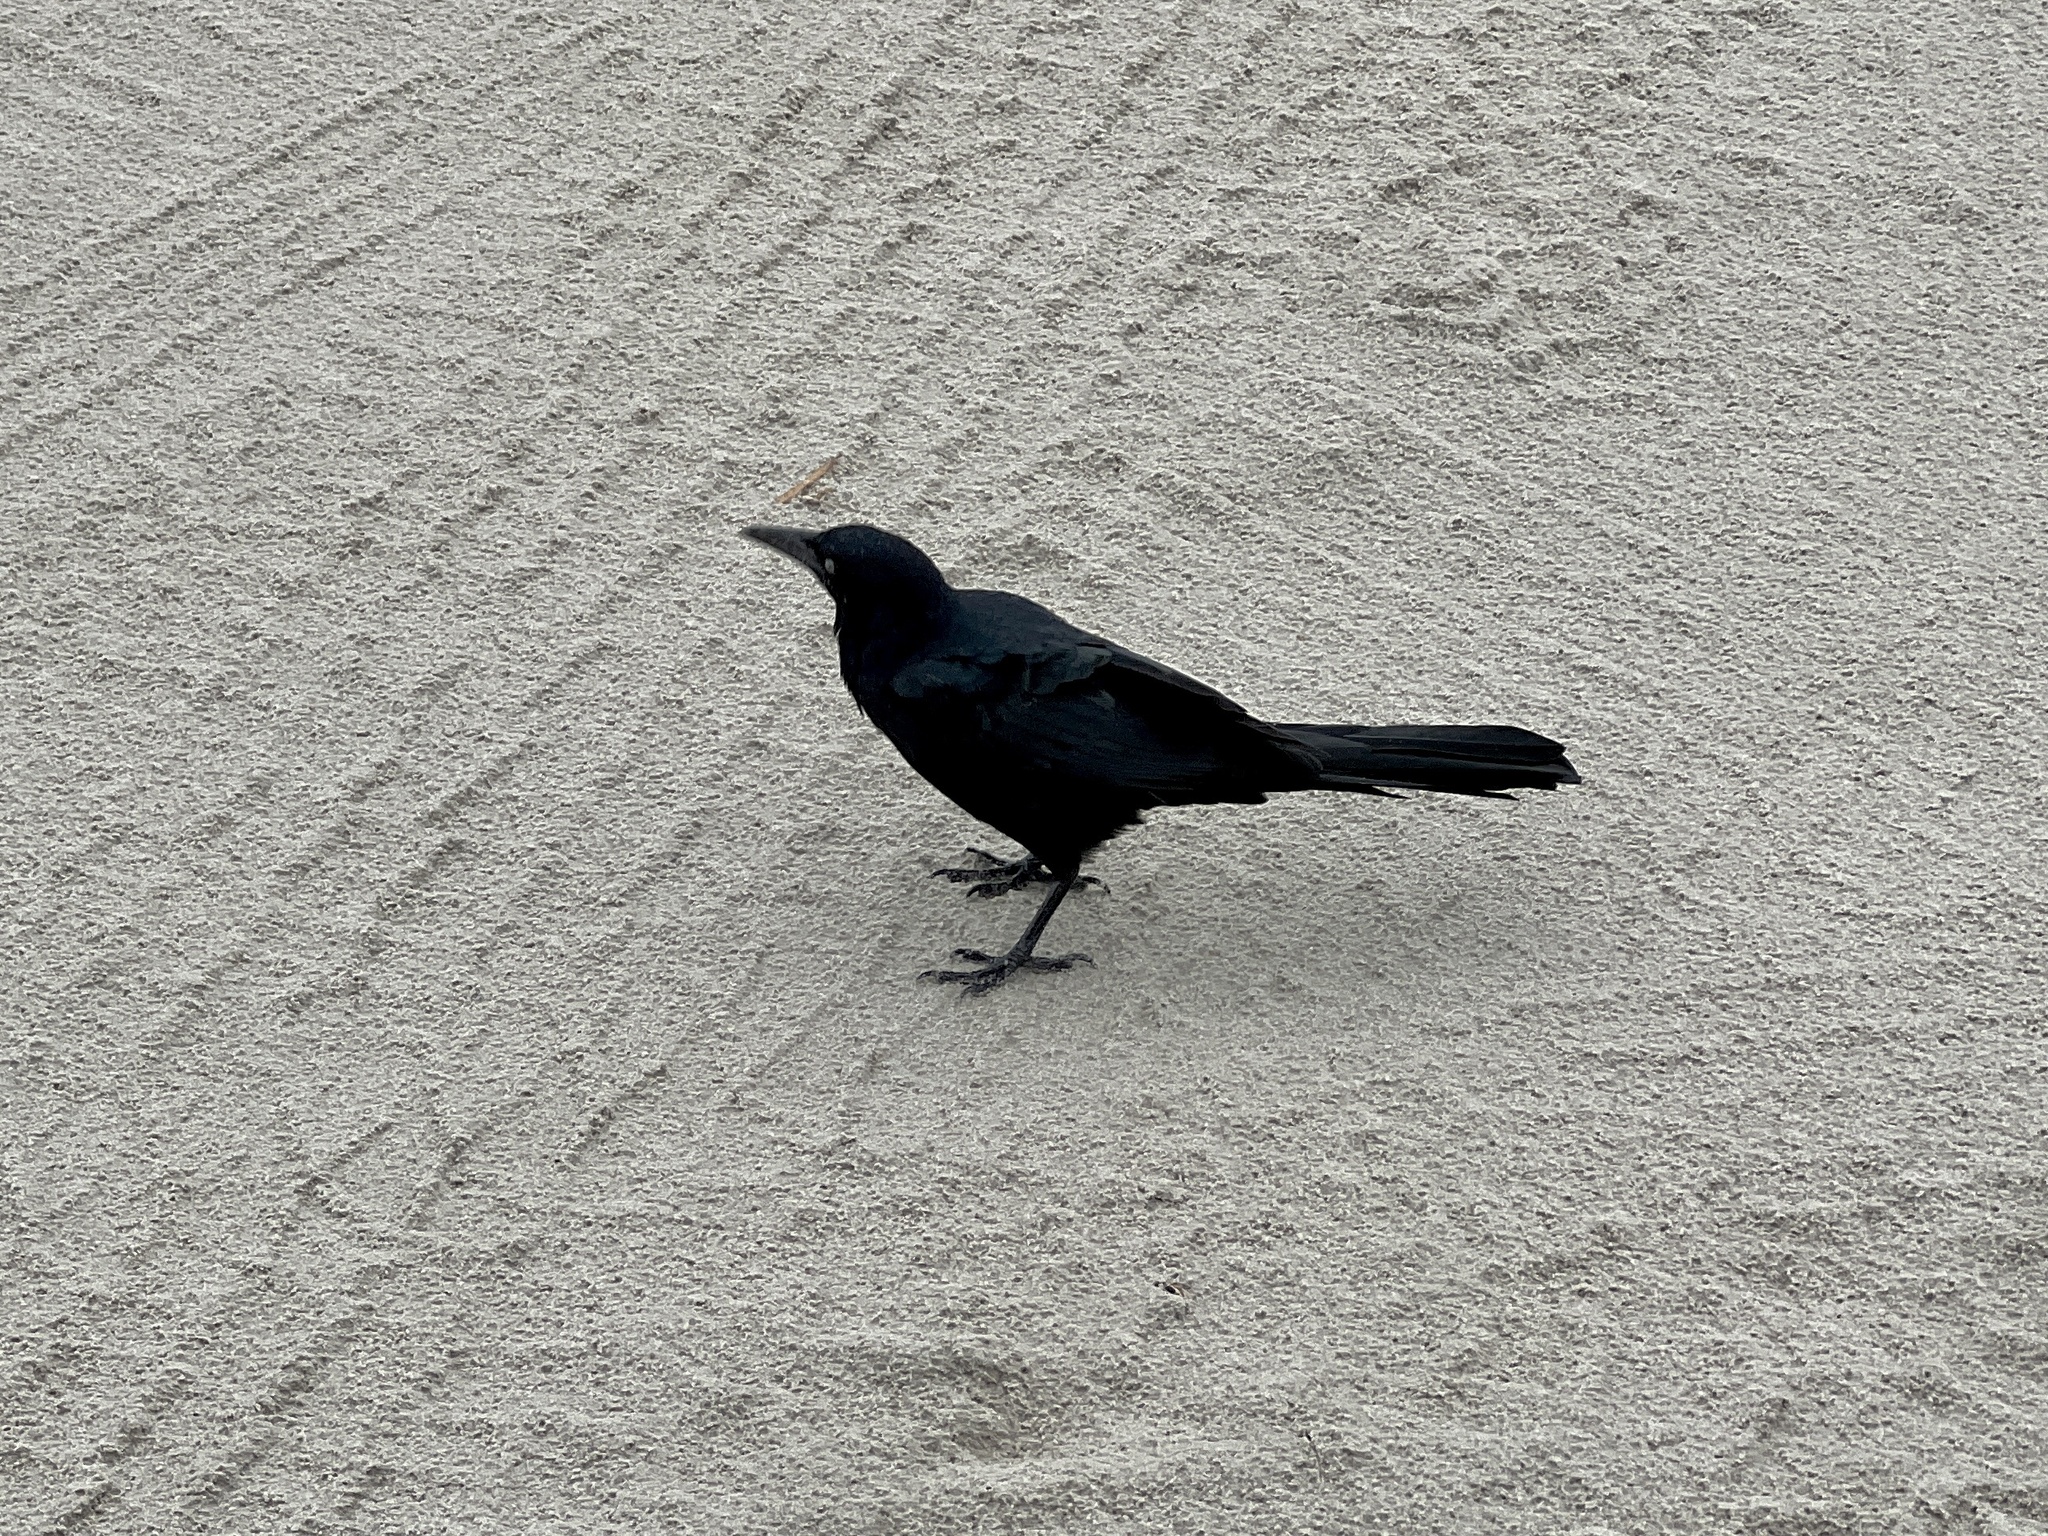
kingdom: Animalia
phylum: Chordata
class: Aves
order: Passeriformes
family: Icteridae
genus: Quiscalus
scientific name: Quiscalus mexicanus
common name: Great-tailed grackle
